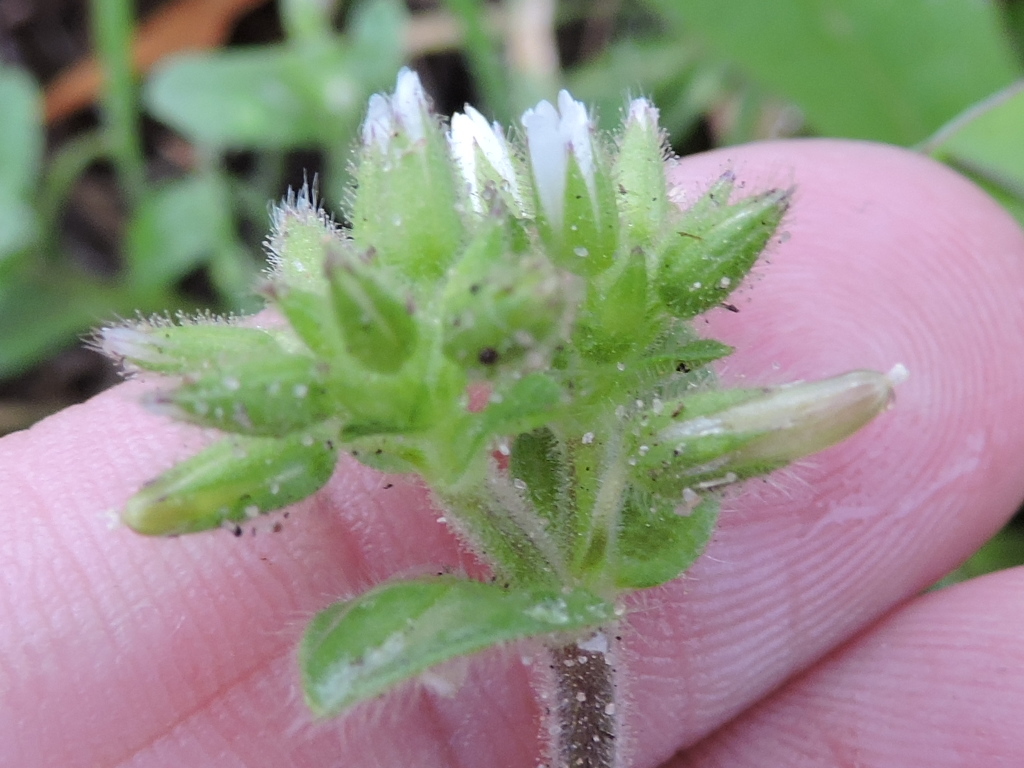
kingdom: Plantae
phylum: Tracheophyta
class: Magnoliopsida
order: Caryophyllales
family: Caryophyllaceae
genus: Cerastium
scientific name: Cerastium glomeratum
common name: Sticky chickweed
